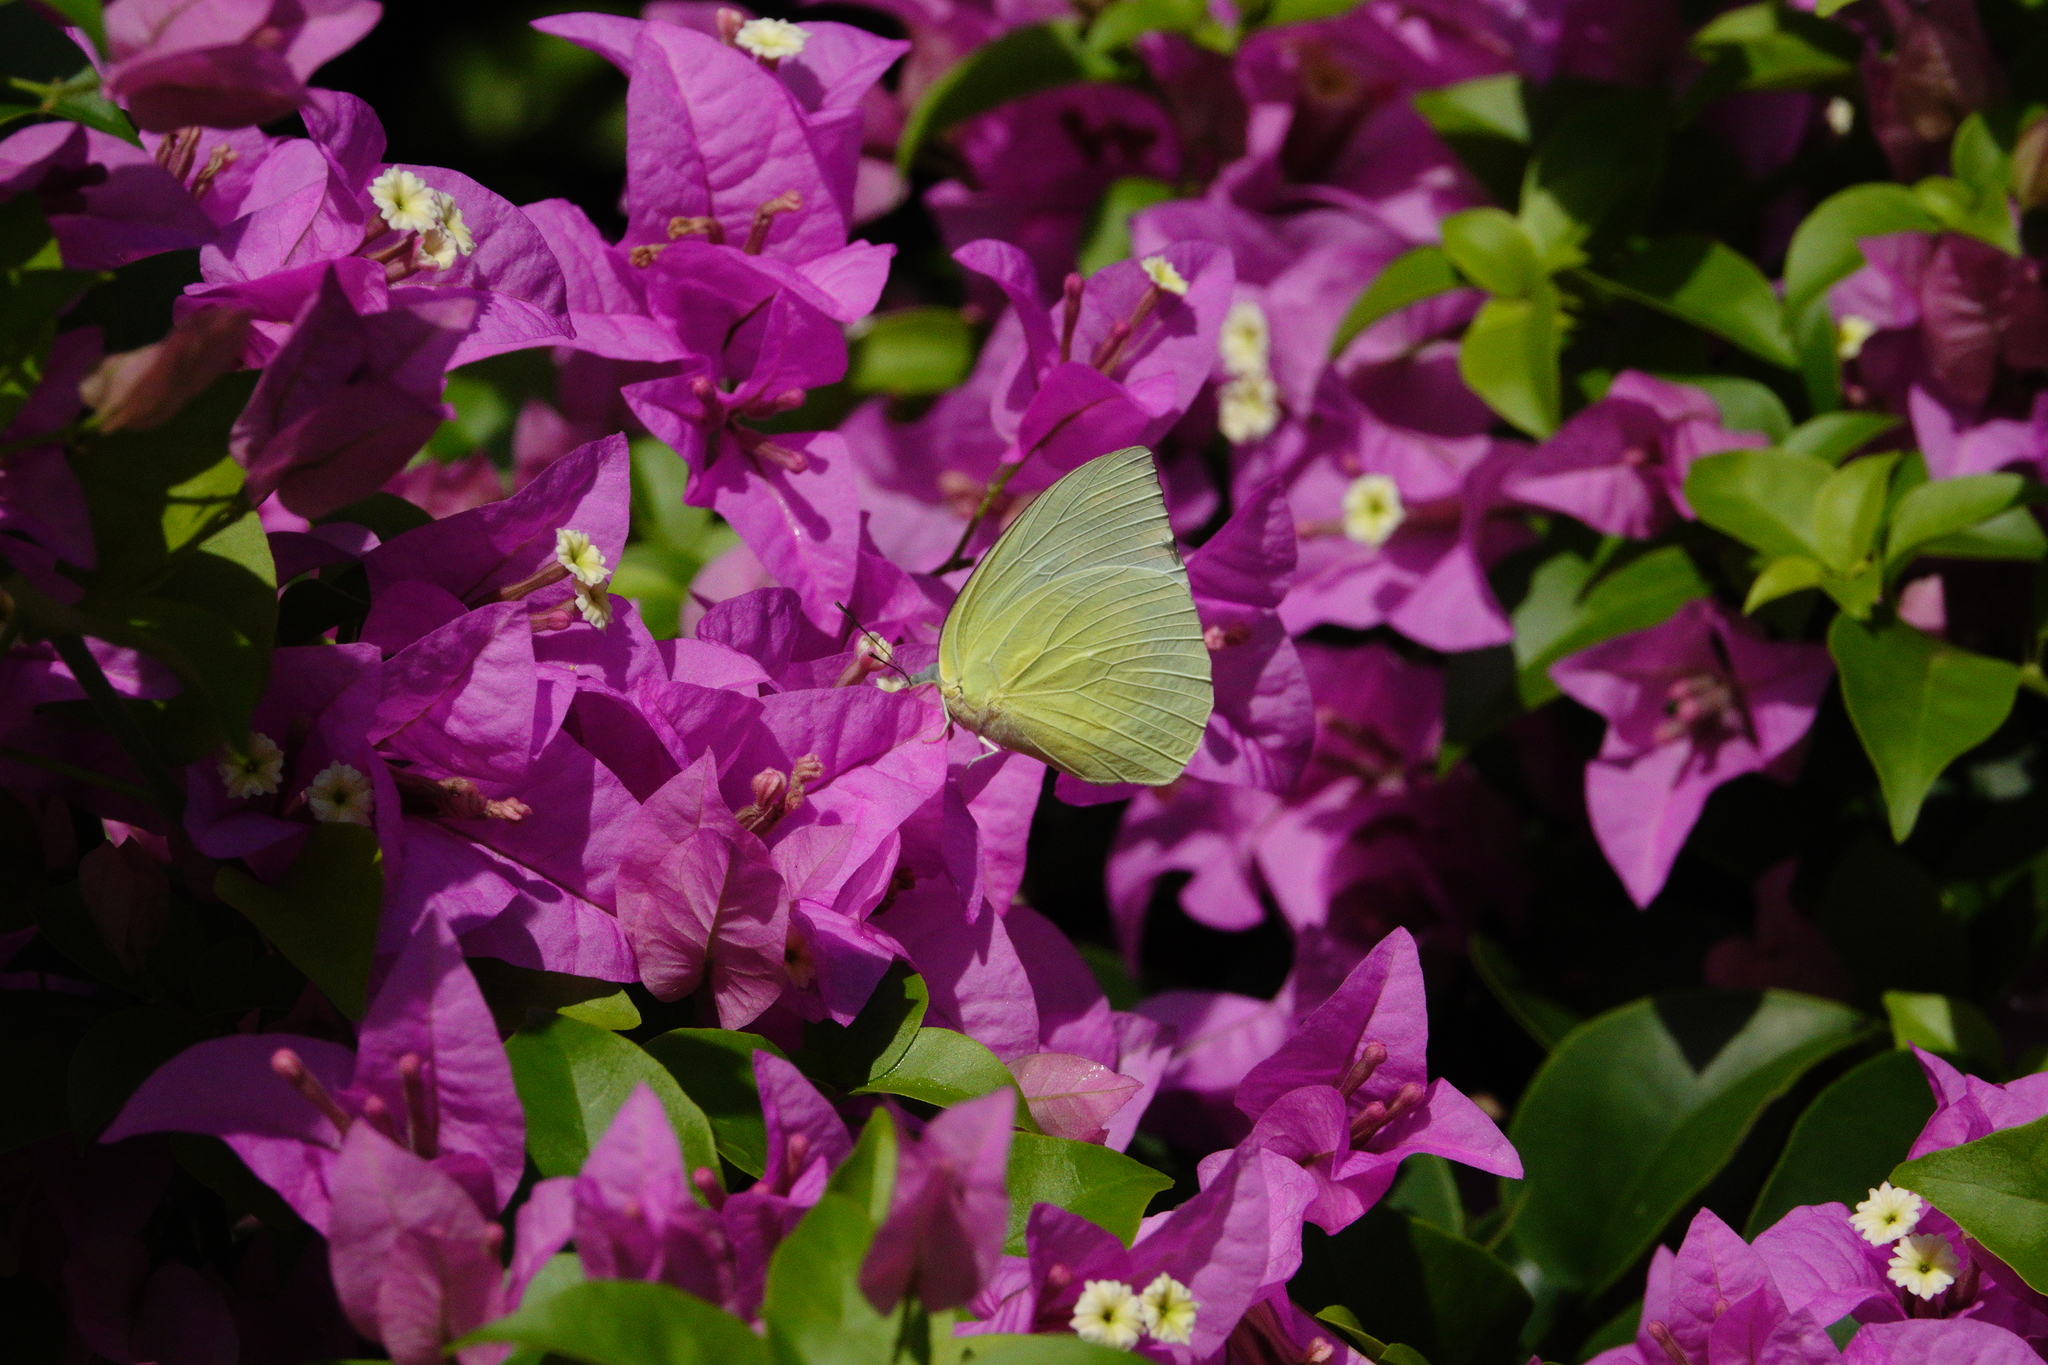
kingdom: Animalia
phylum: Arthropoda
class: Insecta
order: Lepidoptera
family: Pieridae
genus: Catopsilia
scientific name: Catopsilia pomona
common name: Common emigrant
